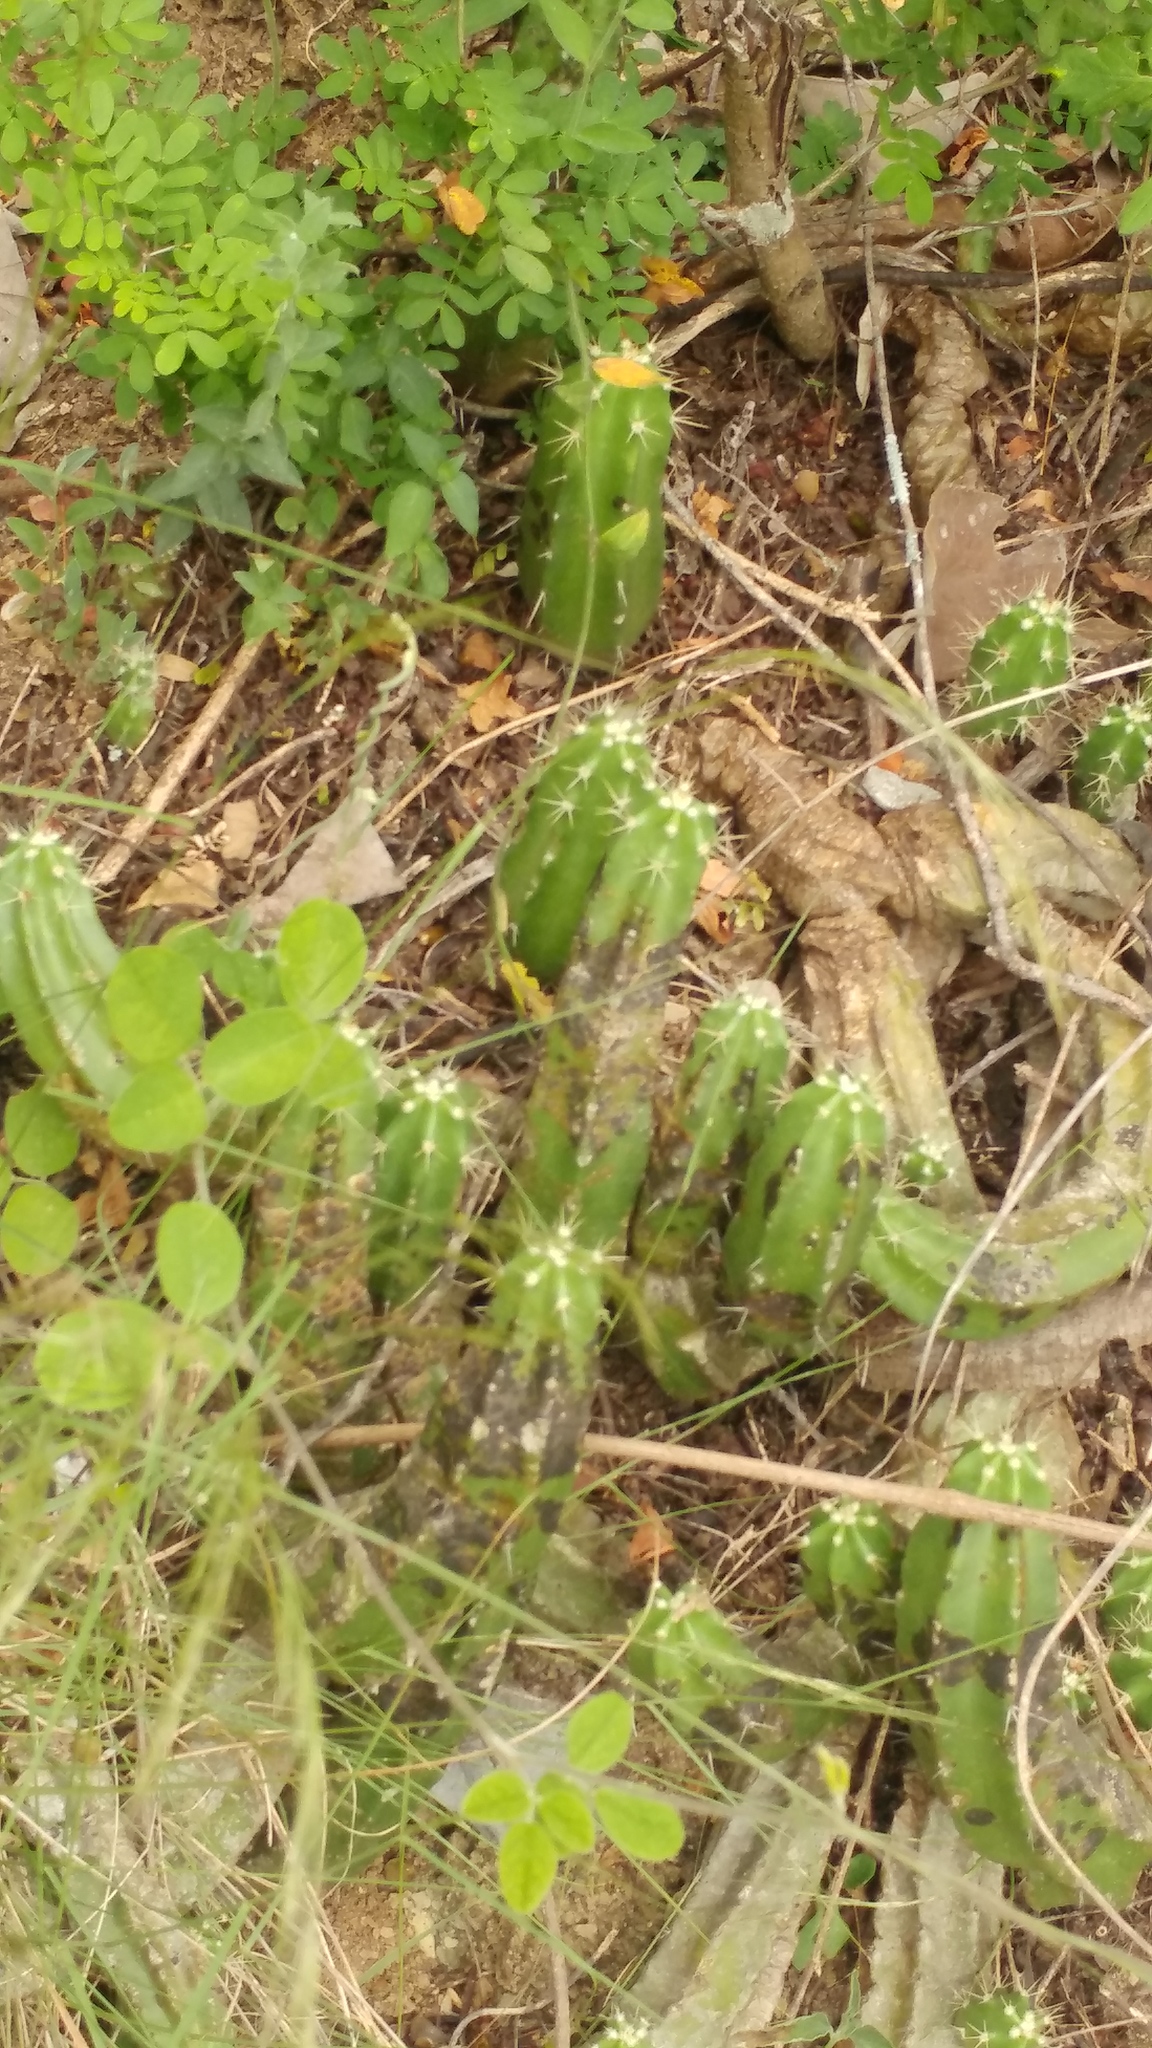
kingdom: Plantae
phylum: Tracheophyta
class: Magnoliopsida
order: Caryophyllales
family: Cactaceae
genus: Echinocereus
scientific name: Echinocereus viereckii
